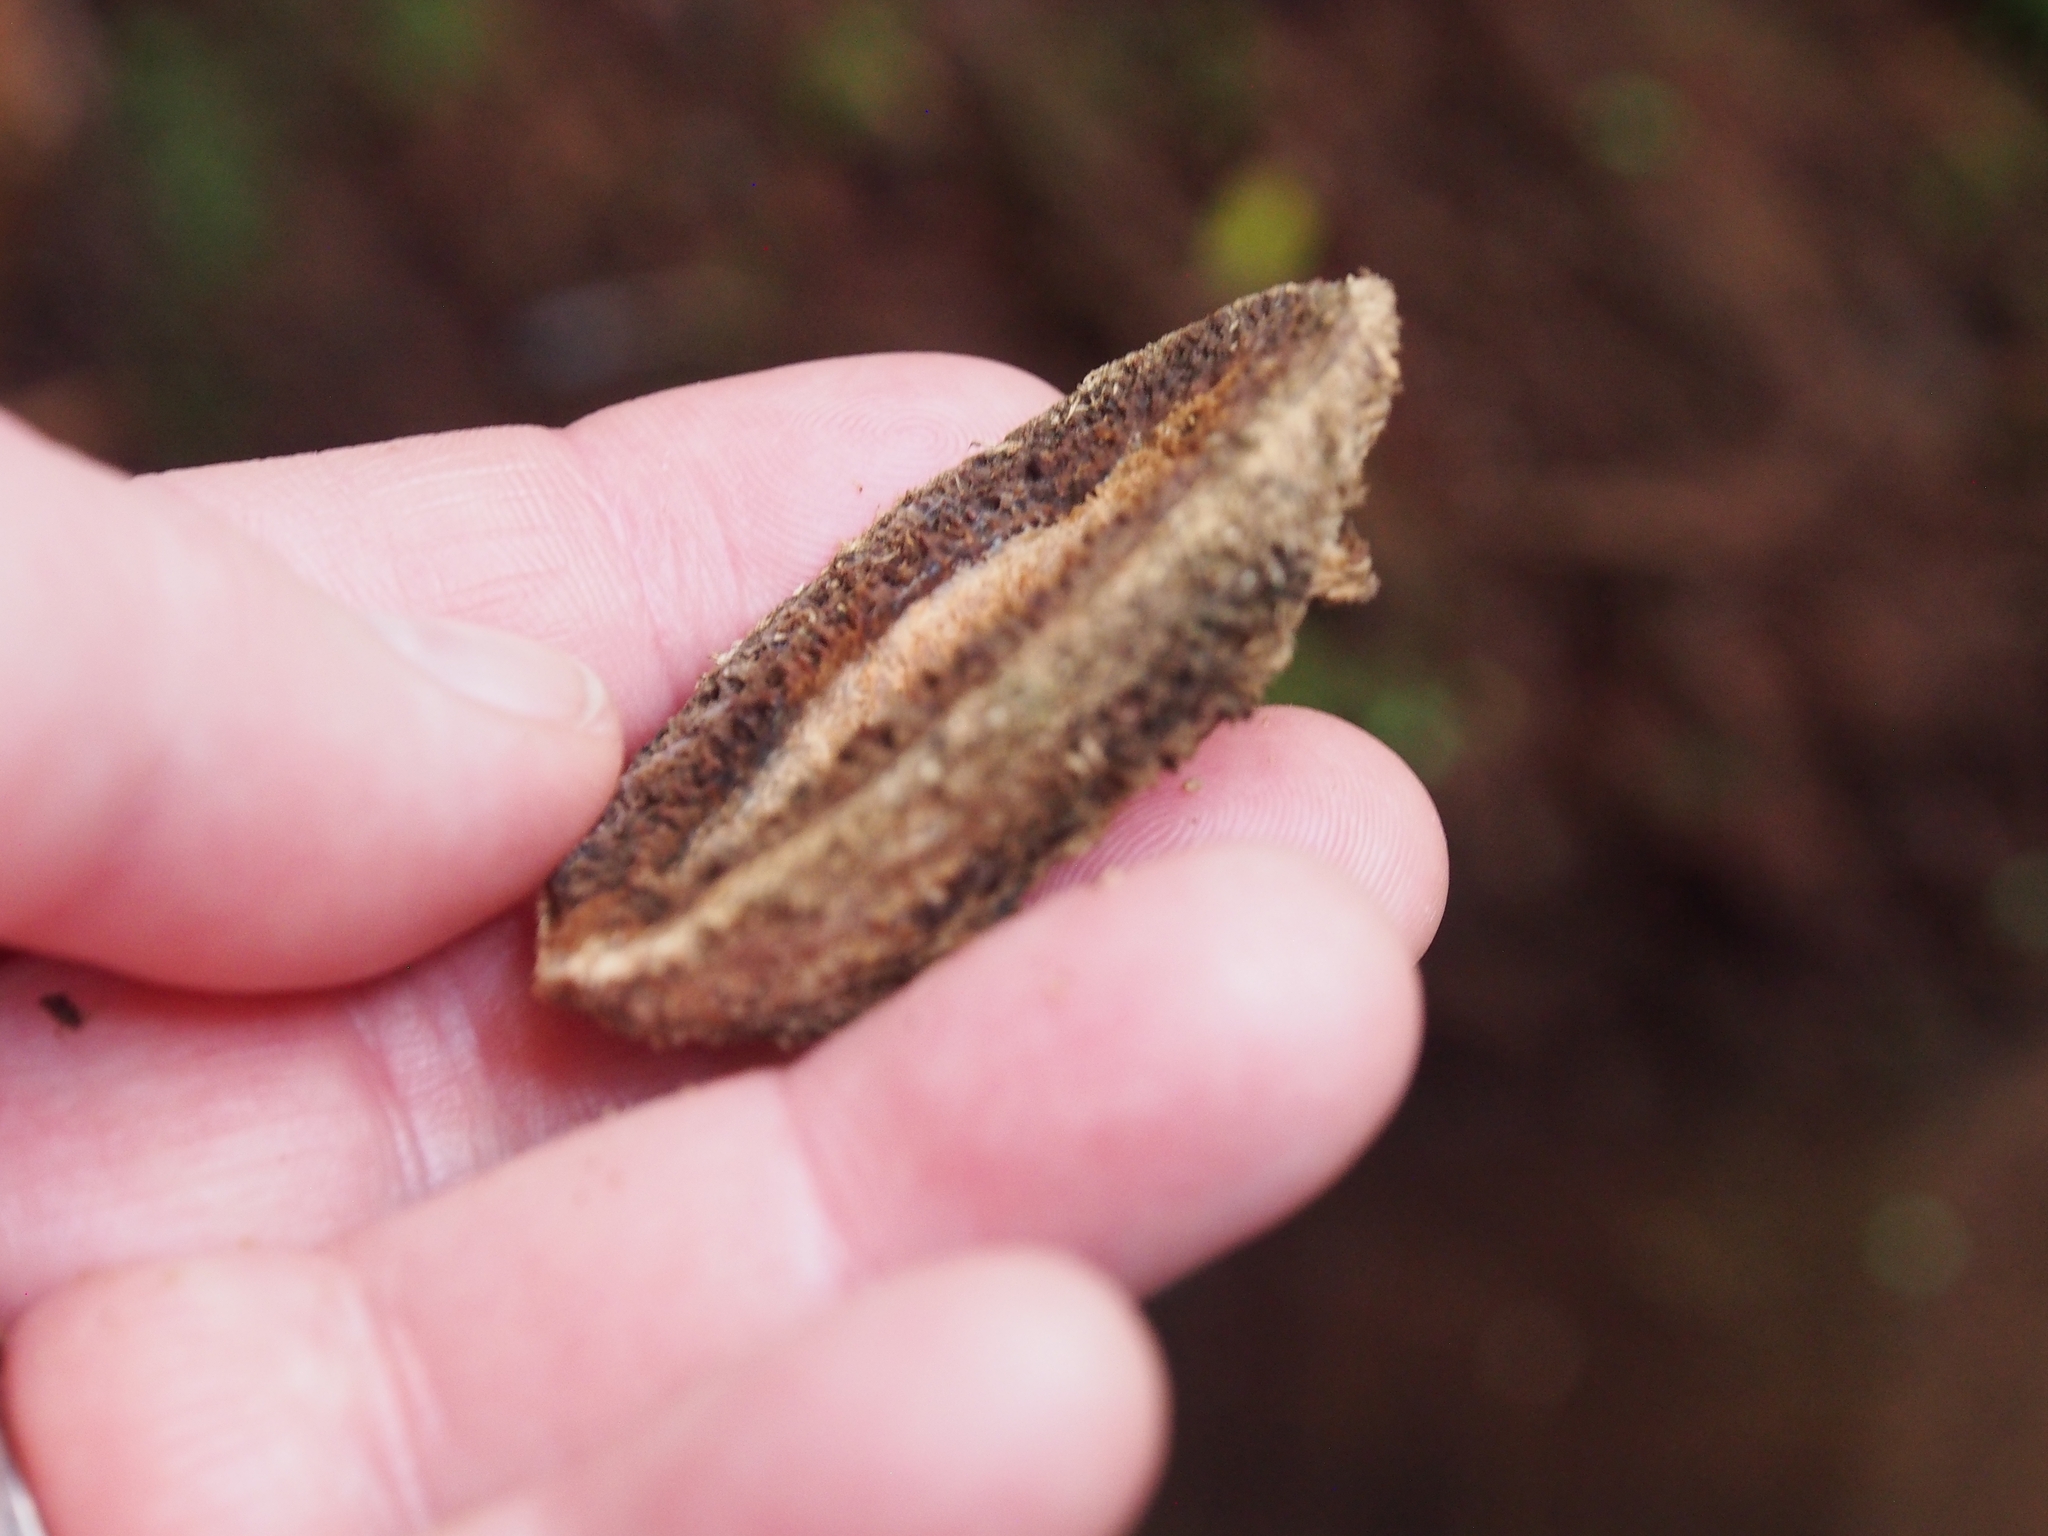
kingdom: Plantae
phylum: Tracheophyta
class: Magnoliopsida
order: Fabales
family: Fabaceae
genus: Dipteryx
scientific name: Dipteryx oleifera
